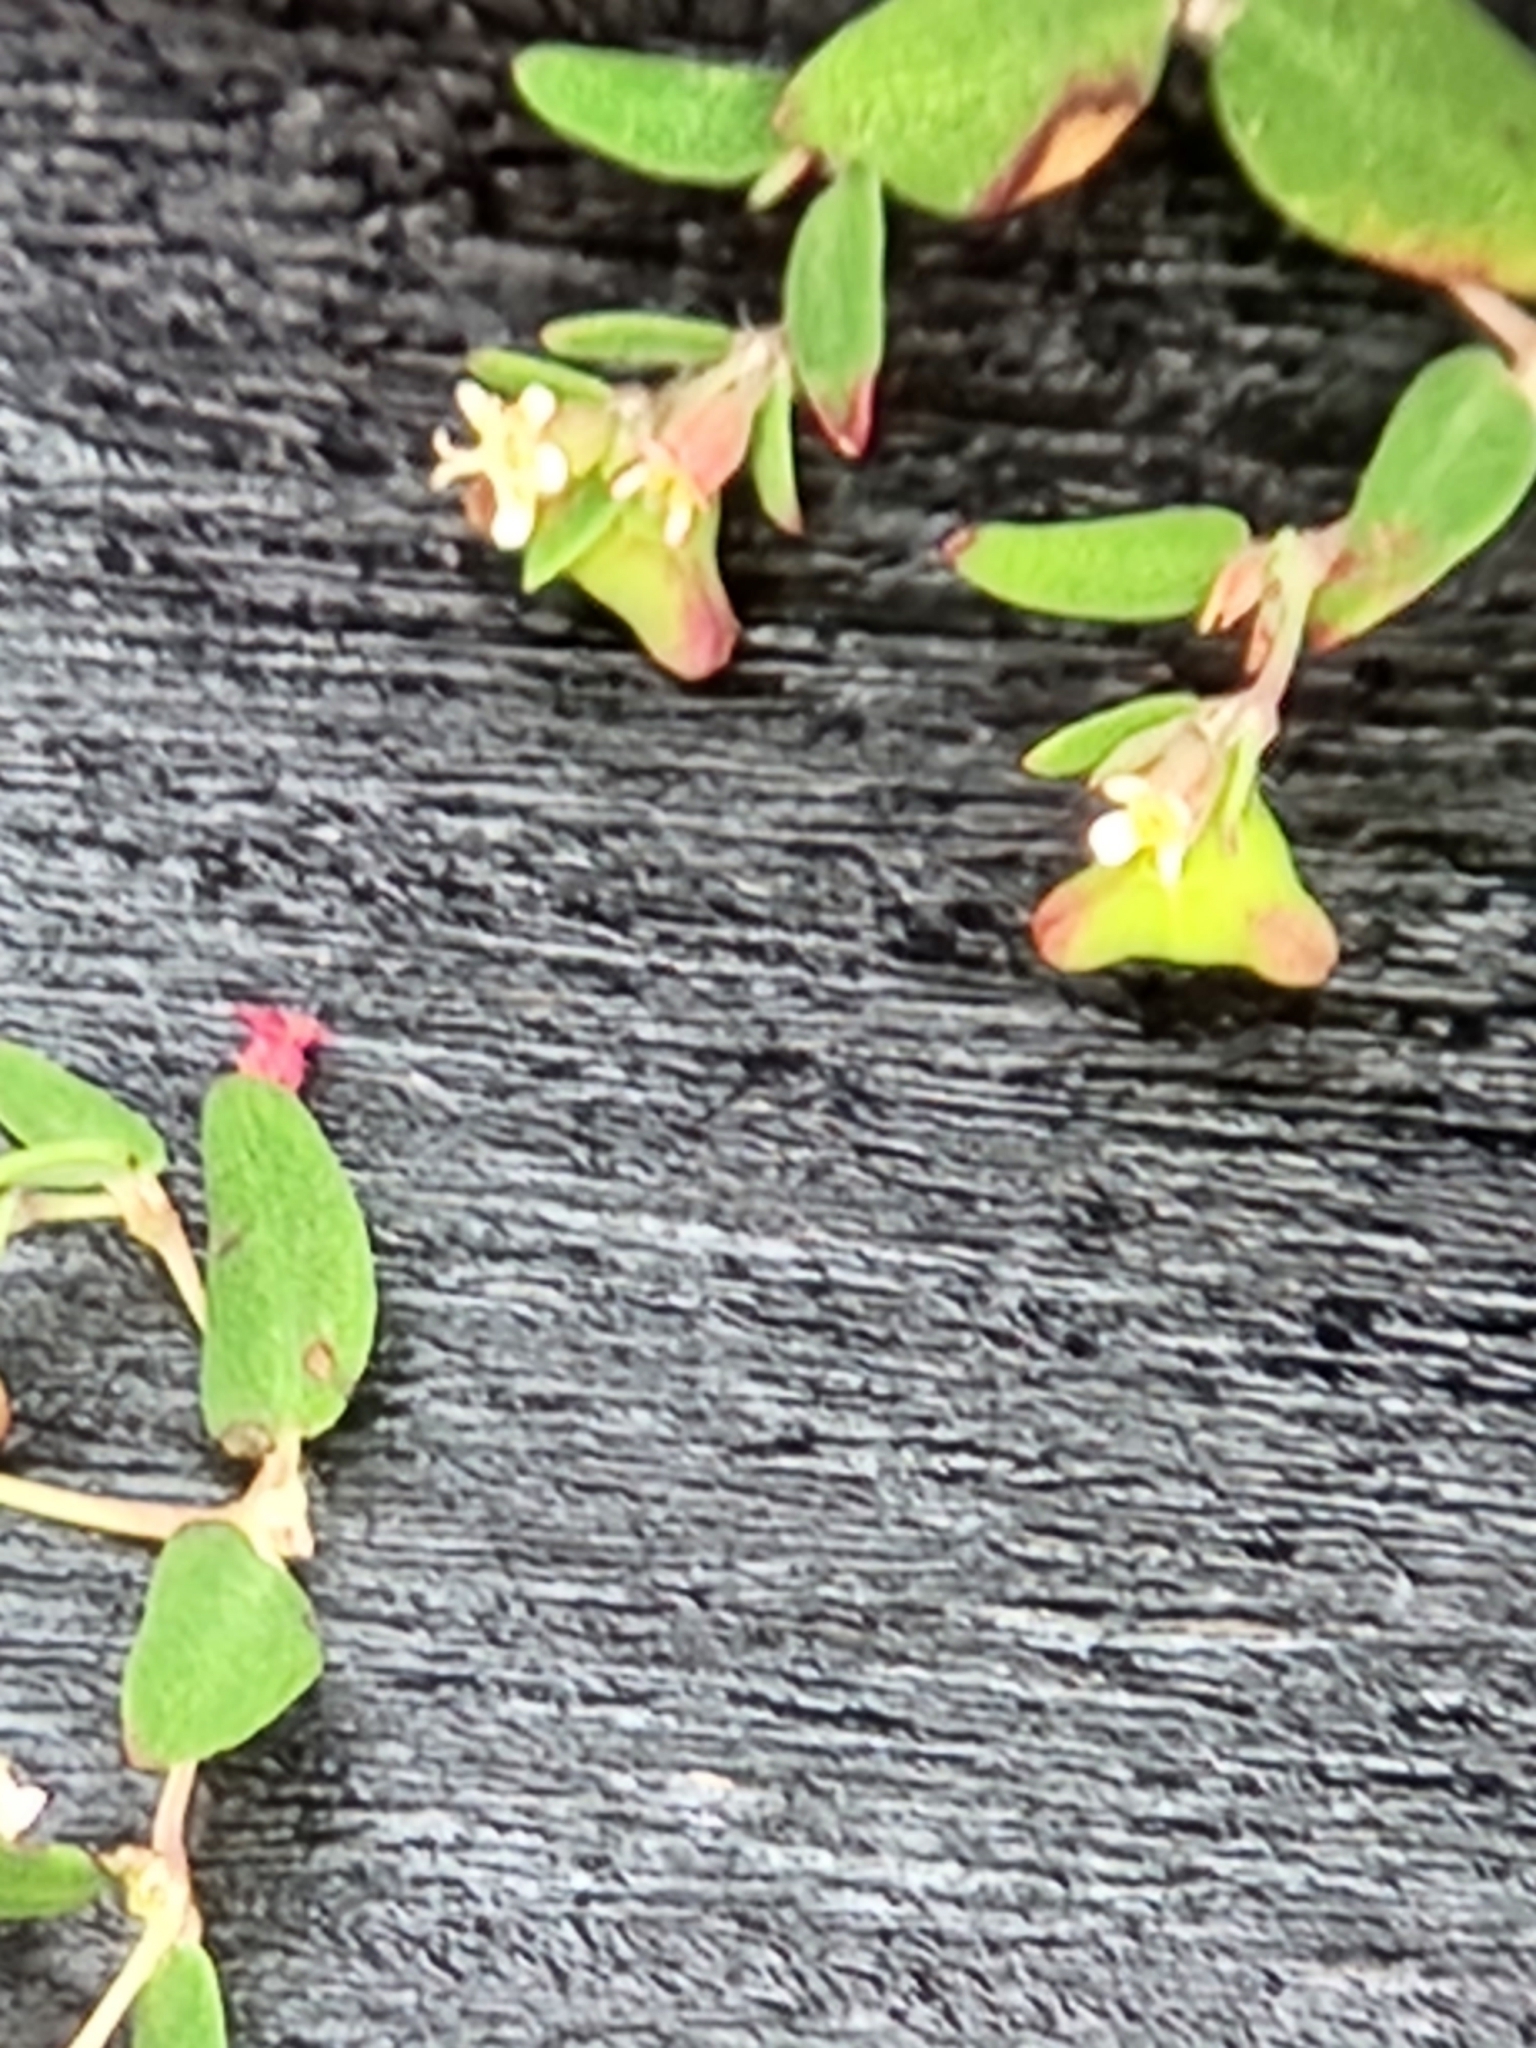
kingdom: Plantae
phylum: Tracheophyta
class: Magnoliopsida
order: Malpighiales
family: Euphorbiaceae
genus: Euphorbia
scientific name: Euphorbia villifera
